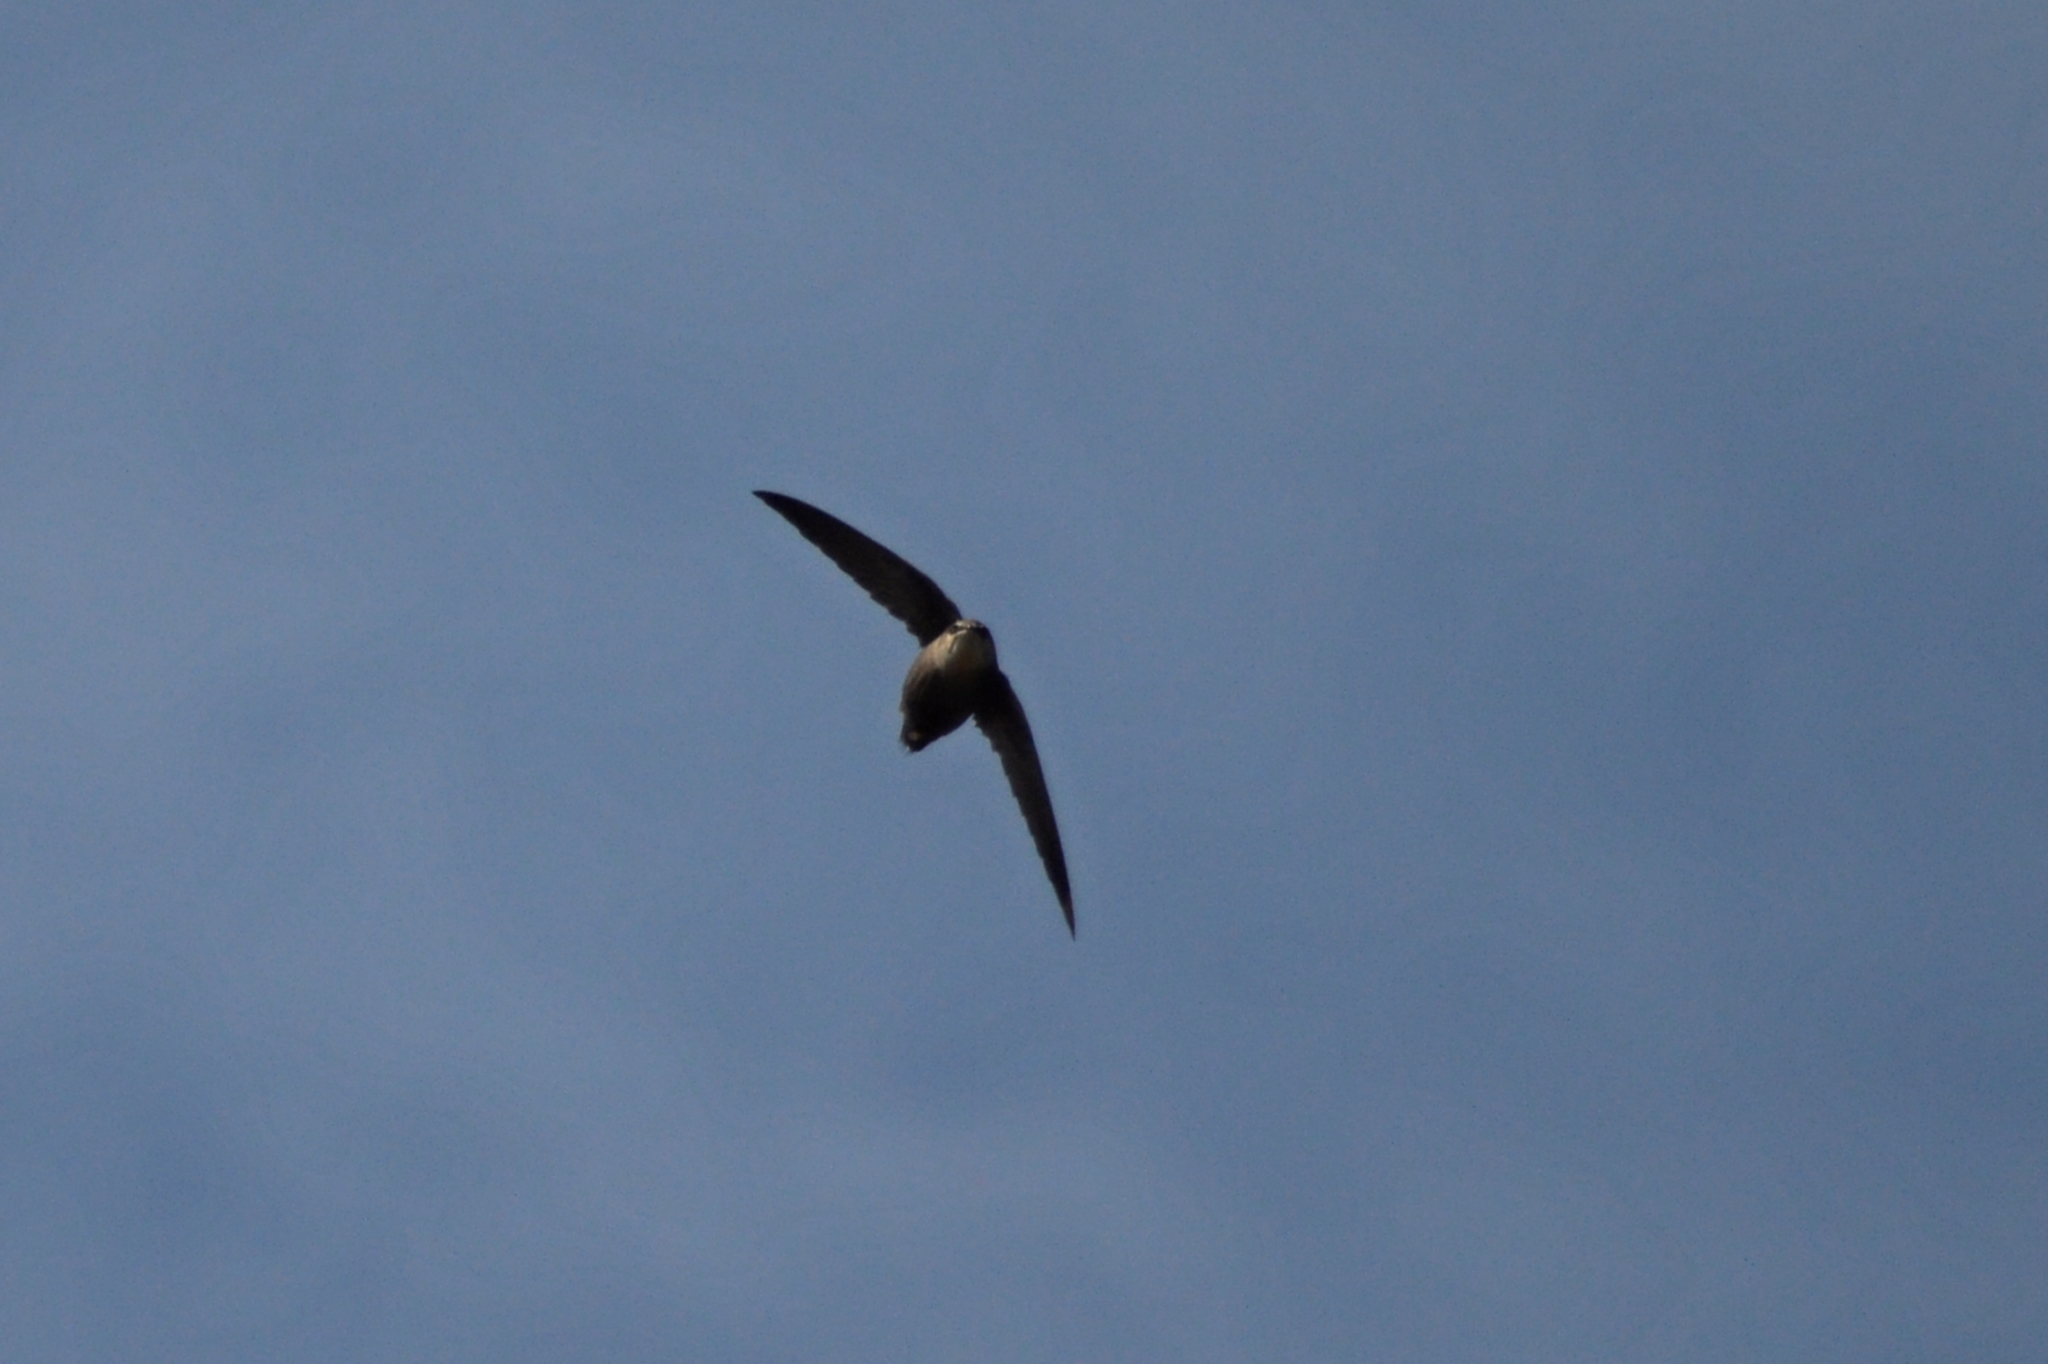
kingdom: Animalia
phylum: Chordata
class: Aves
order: Apodiformes
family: Apodidae
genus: Chaetura
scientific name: Chaetura pelagica
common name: Chimney swift
